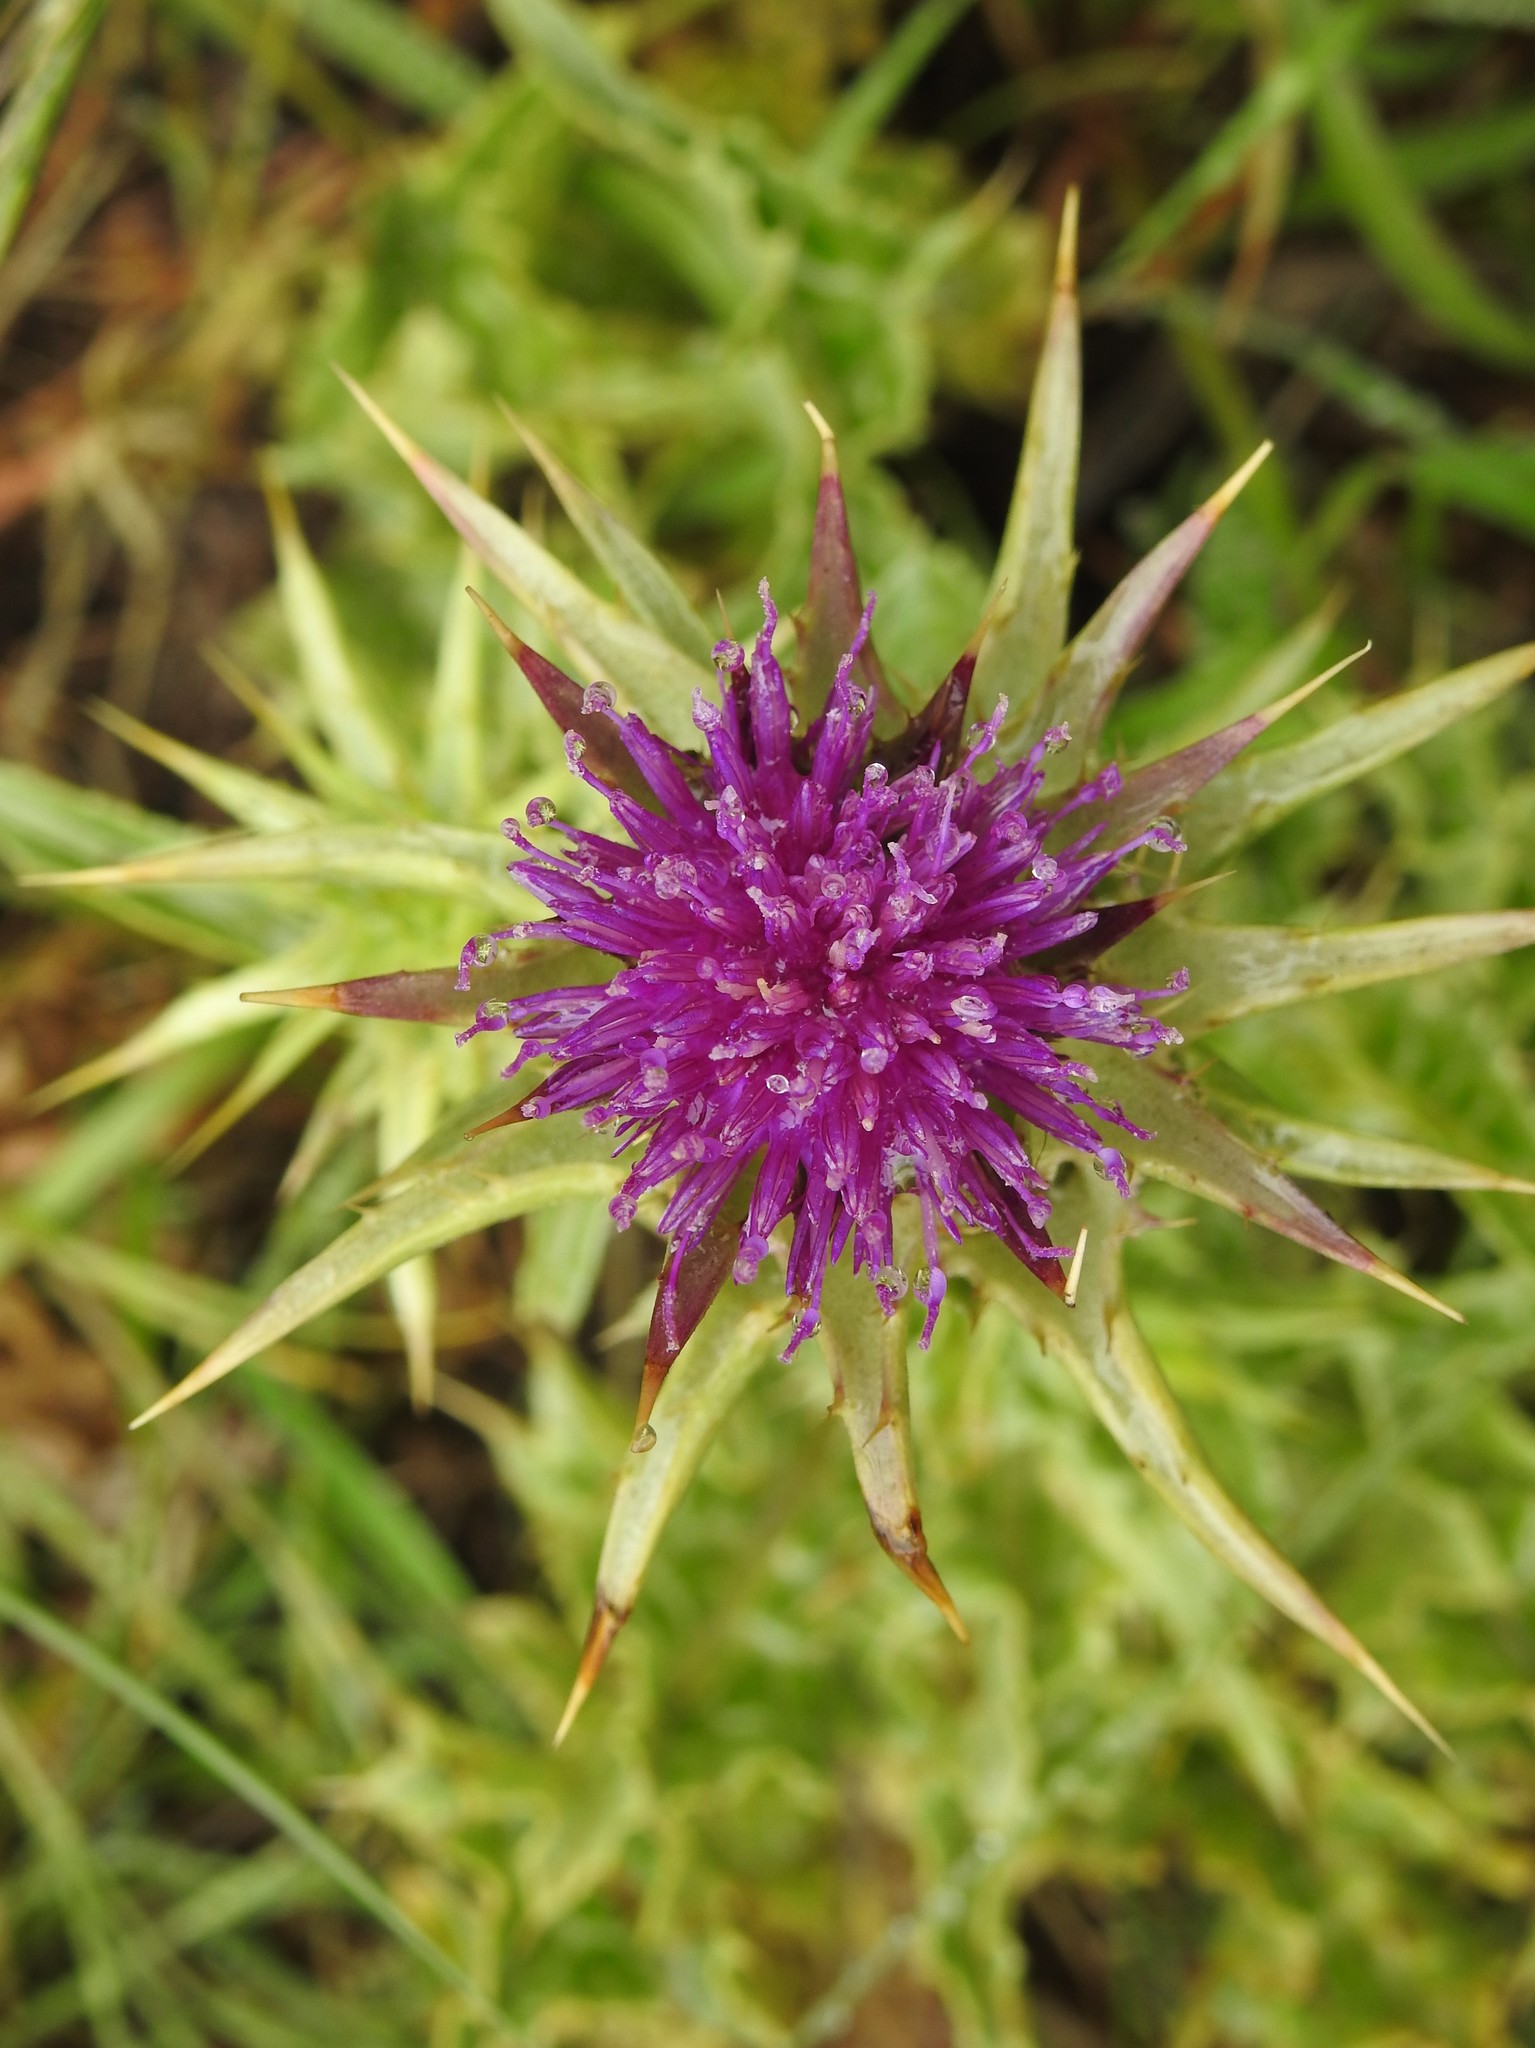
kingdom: Plantae
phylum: Tracheophyta
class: Magnoliopsida
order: Asterales
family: Asteraceae
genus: Silybum
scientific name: Silybum marianum
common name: Milk thistle
